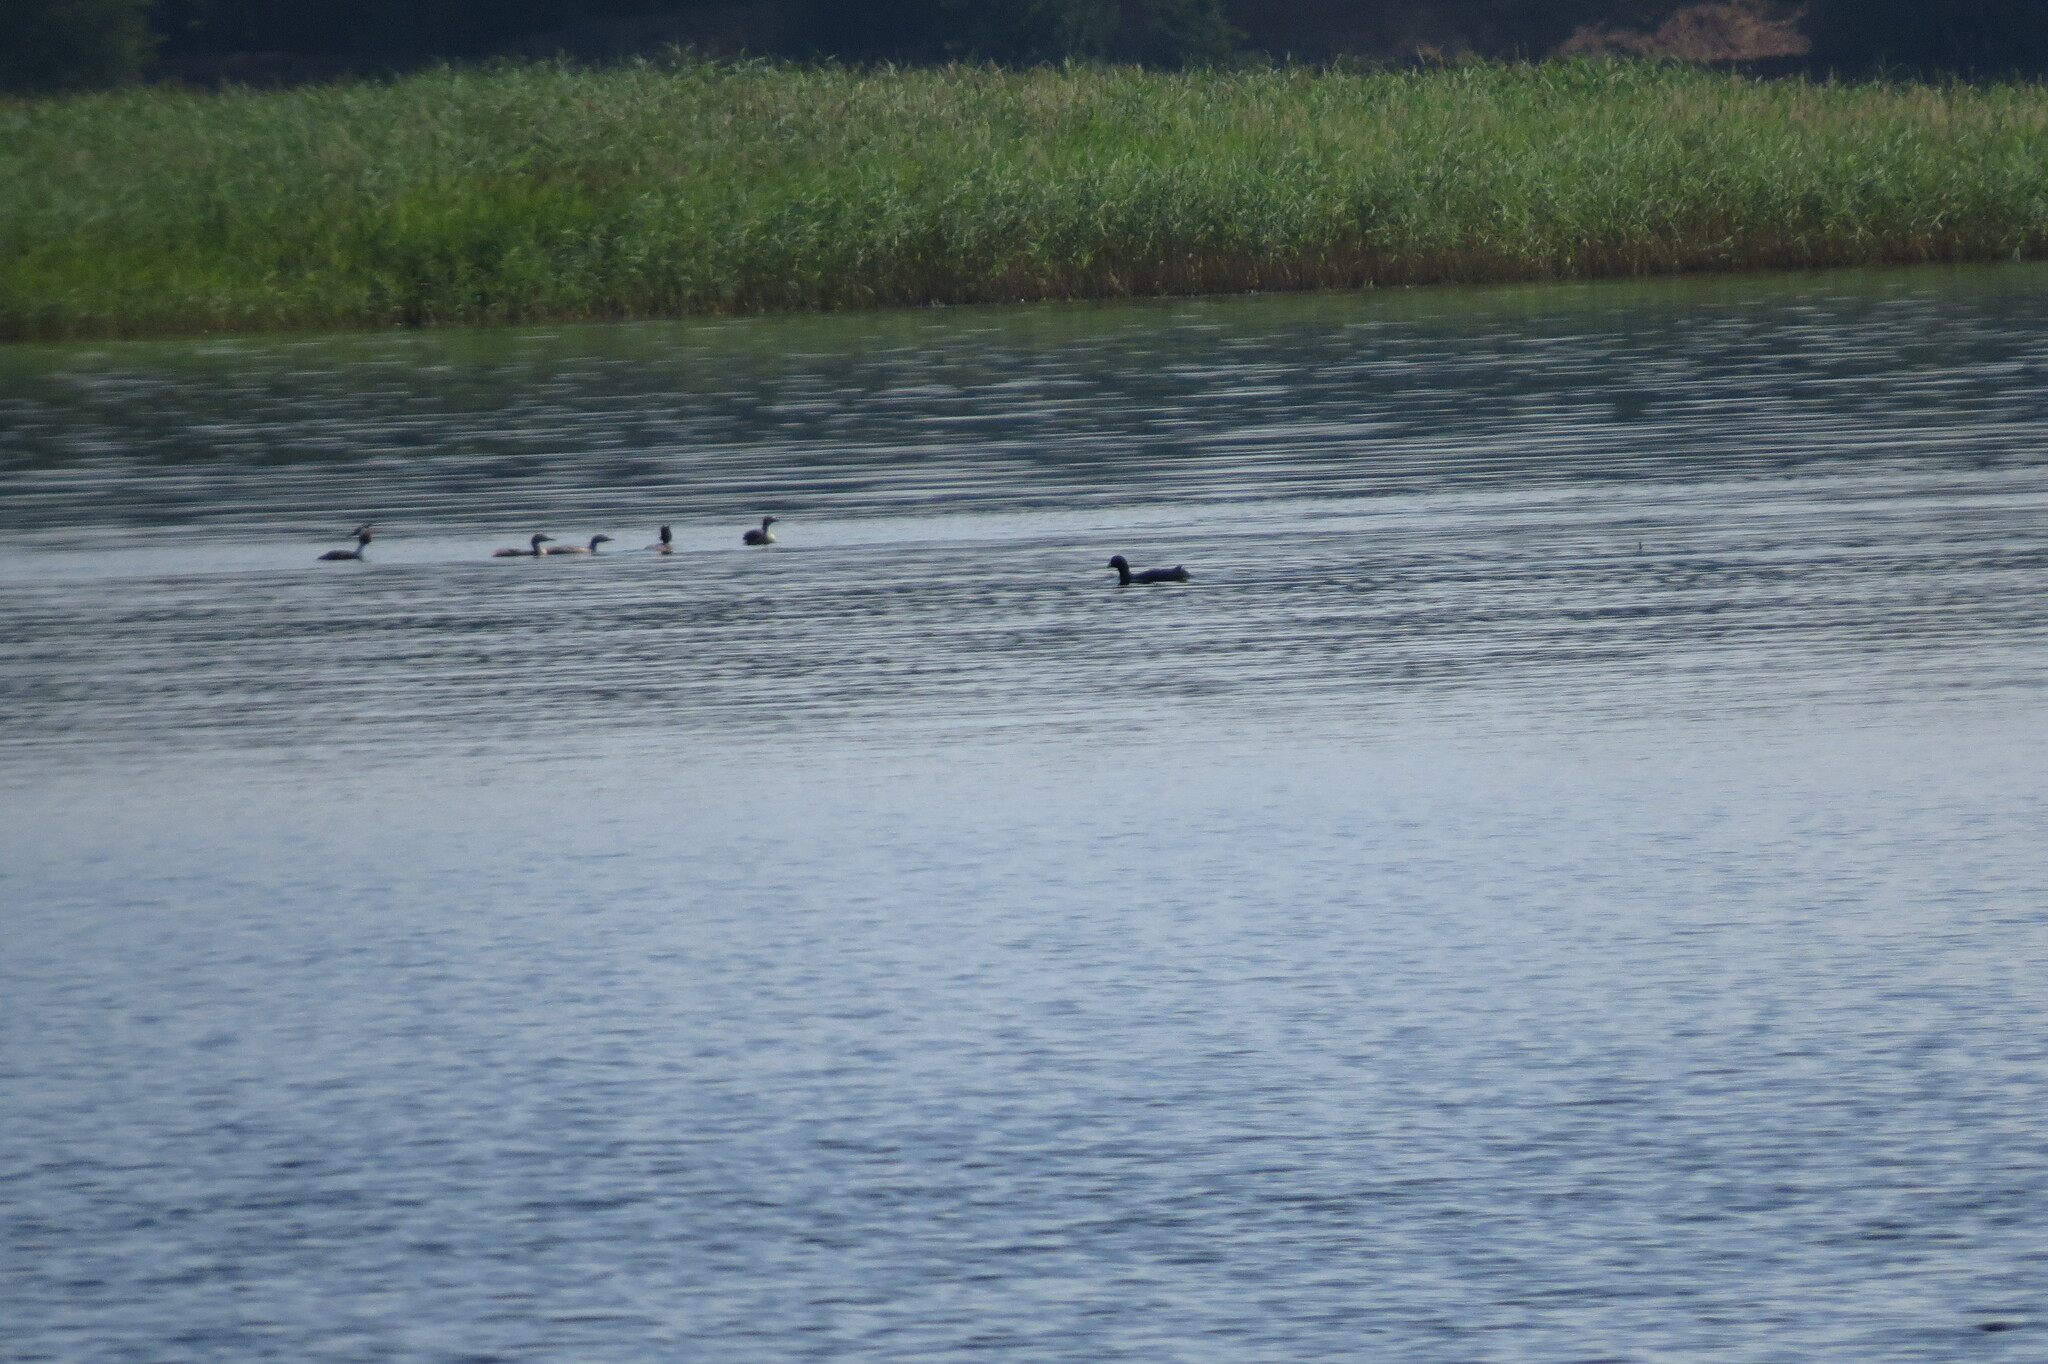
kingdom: Animalia
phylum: Chordata
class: Aves
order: Gruiformes
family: Rallidae
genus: Fulica
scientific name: Fulica atra
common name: Eurasian coot
